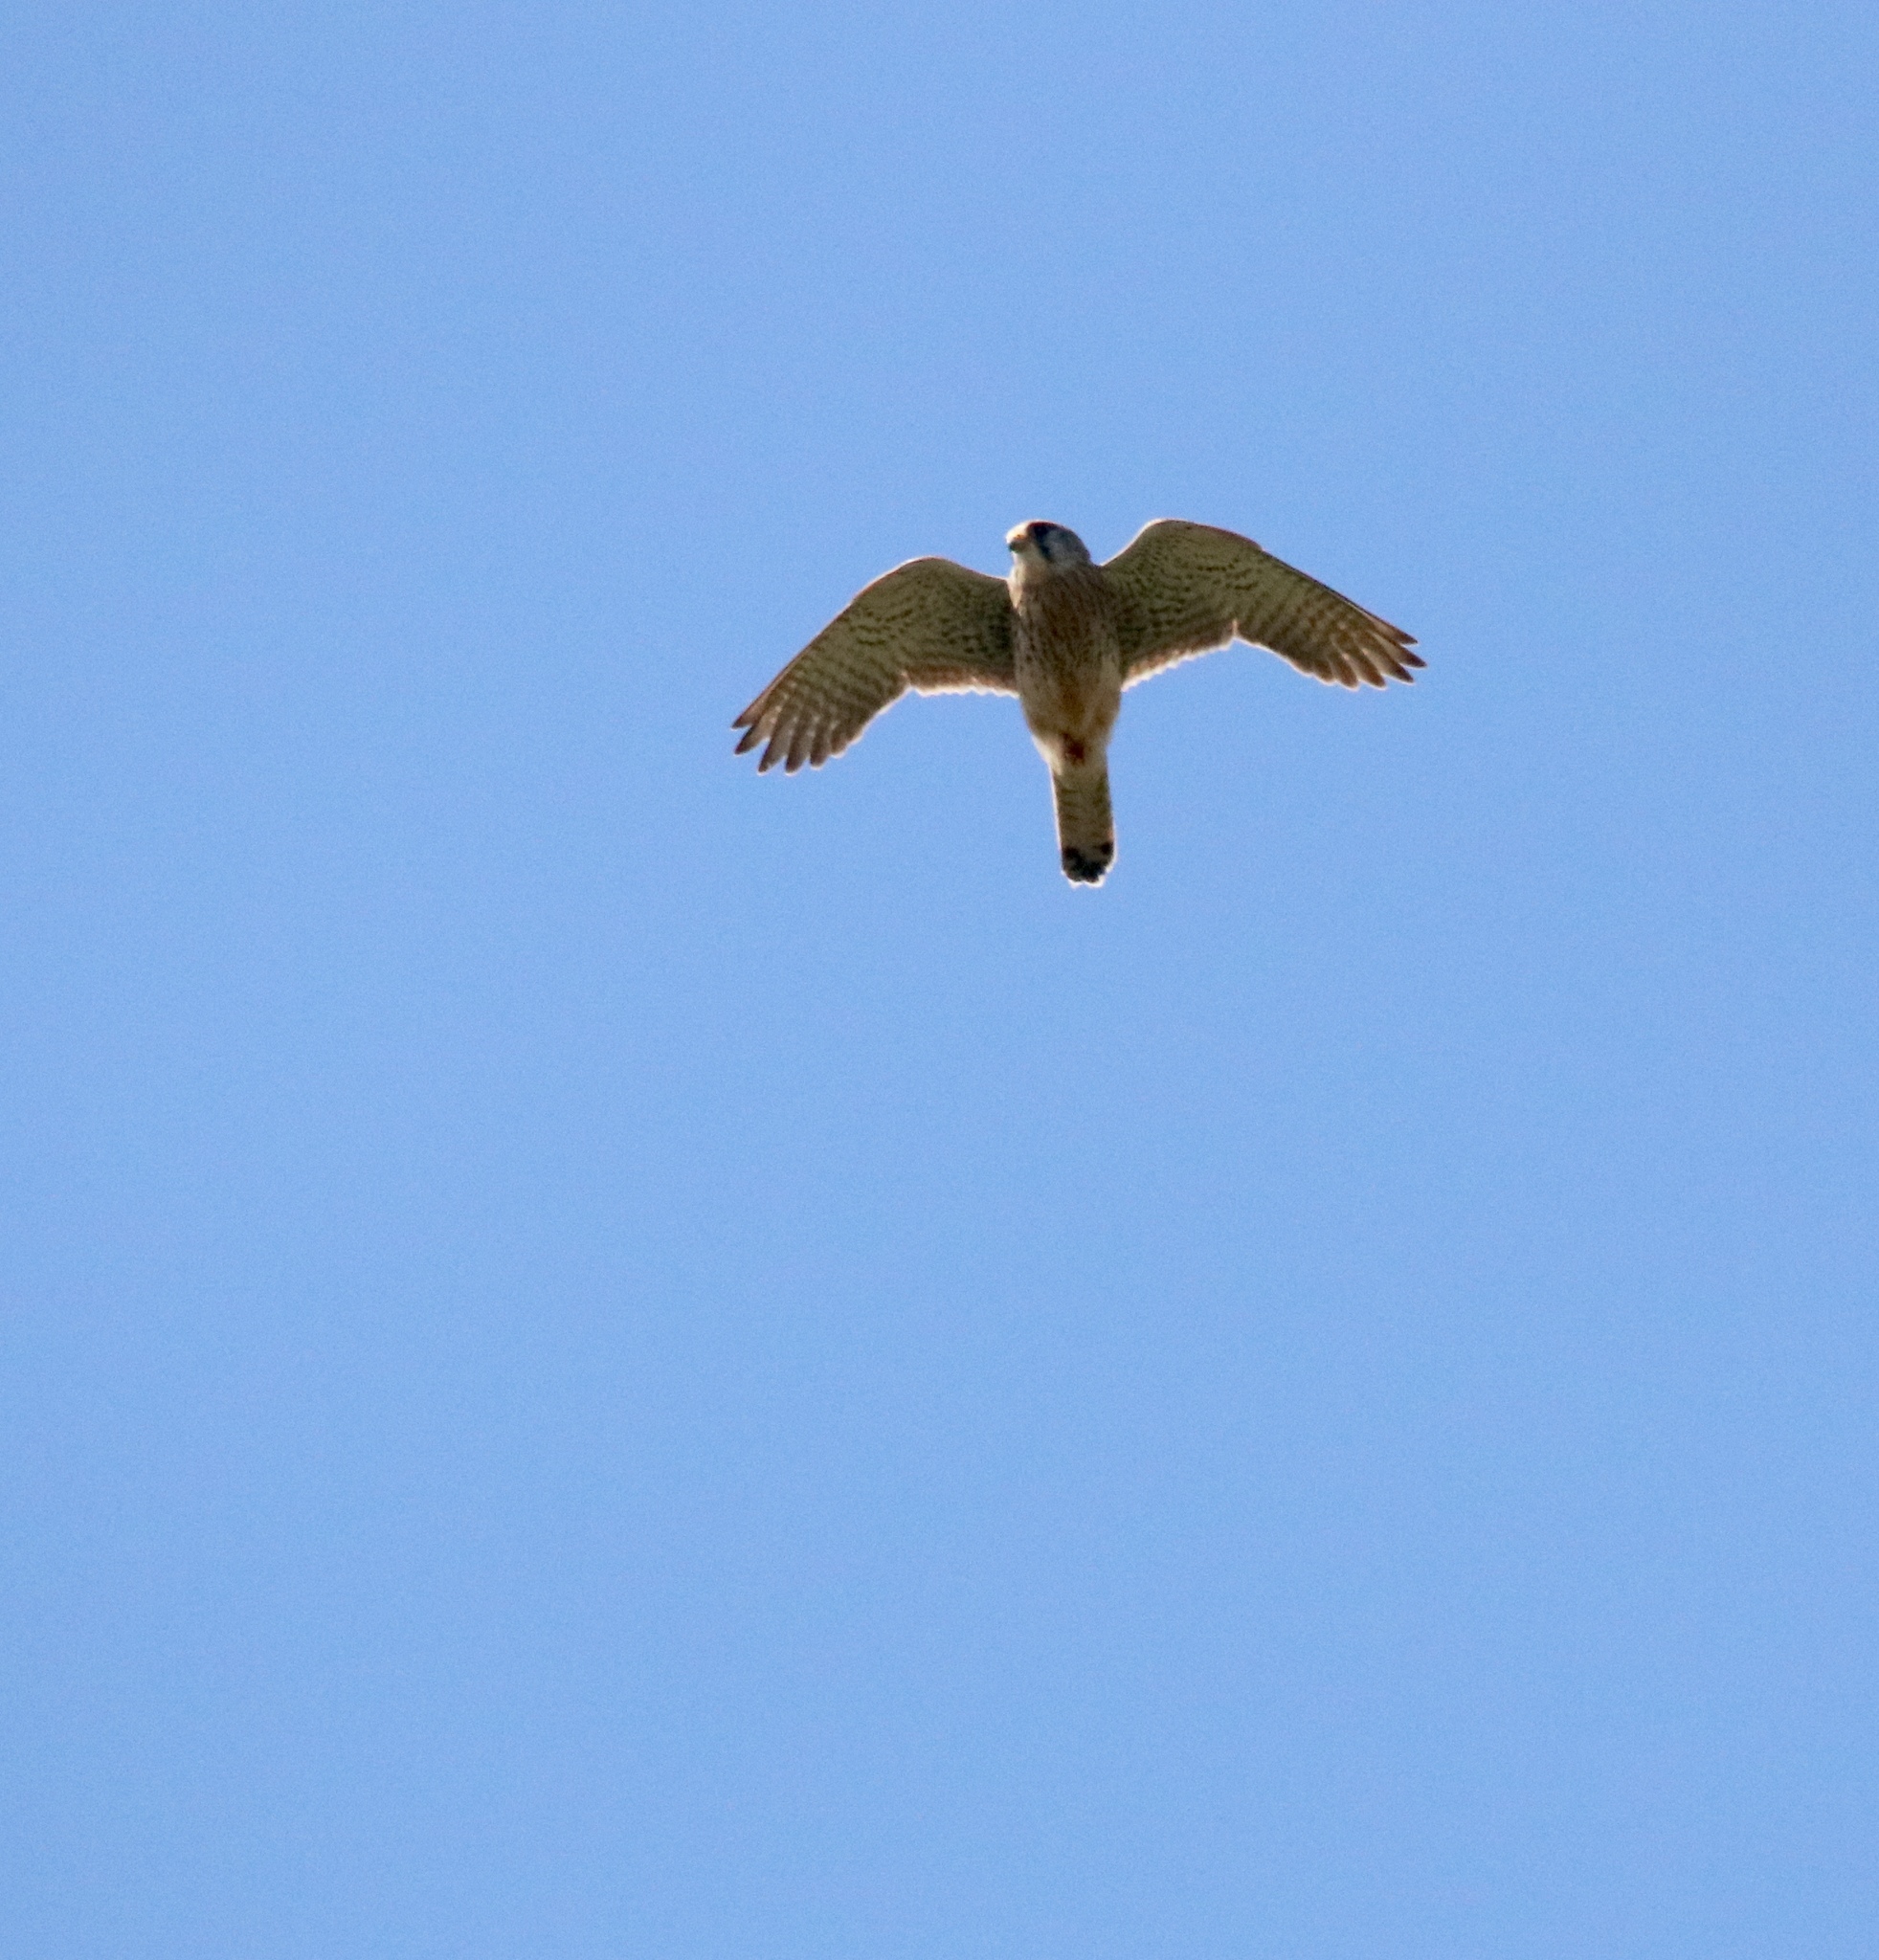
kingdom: Animalia
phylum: Chordata
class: Aves
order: Falconiformes
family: Falconidae
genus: Falco
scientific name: Falco tinnunculus
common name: Common kestrel
